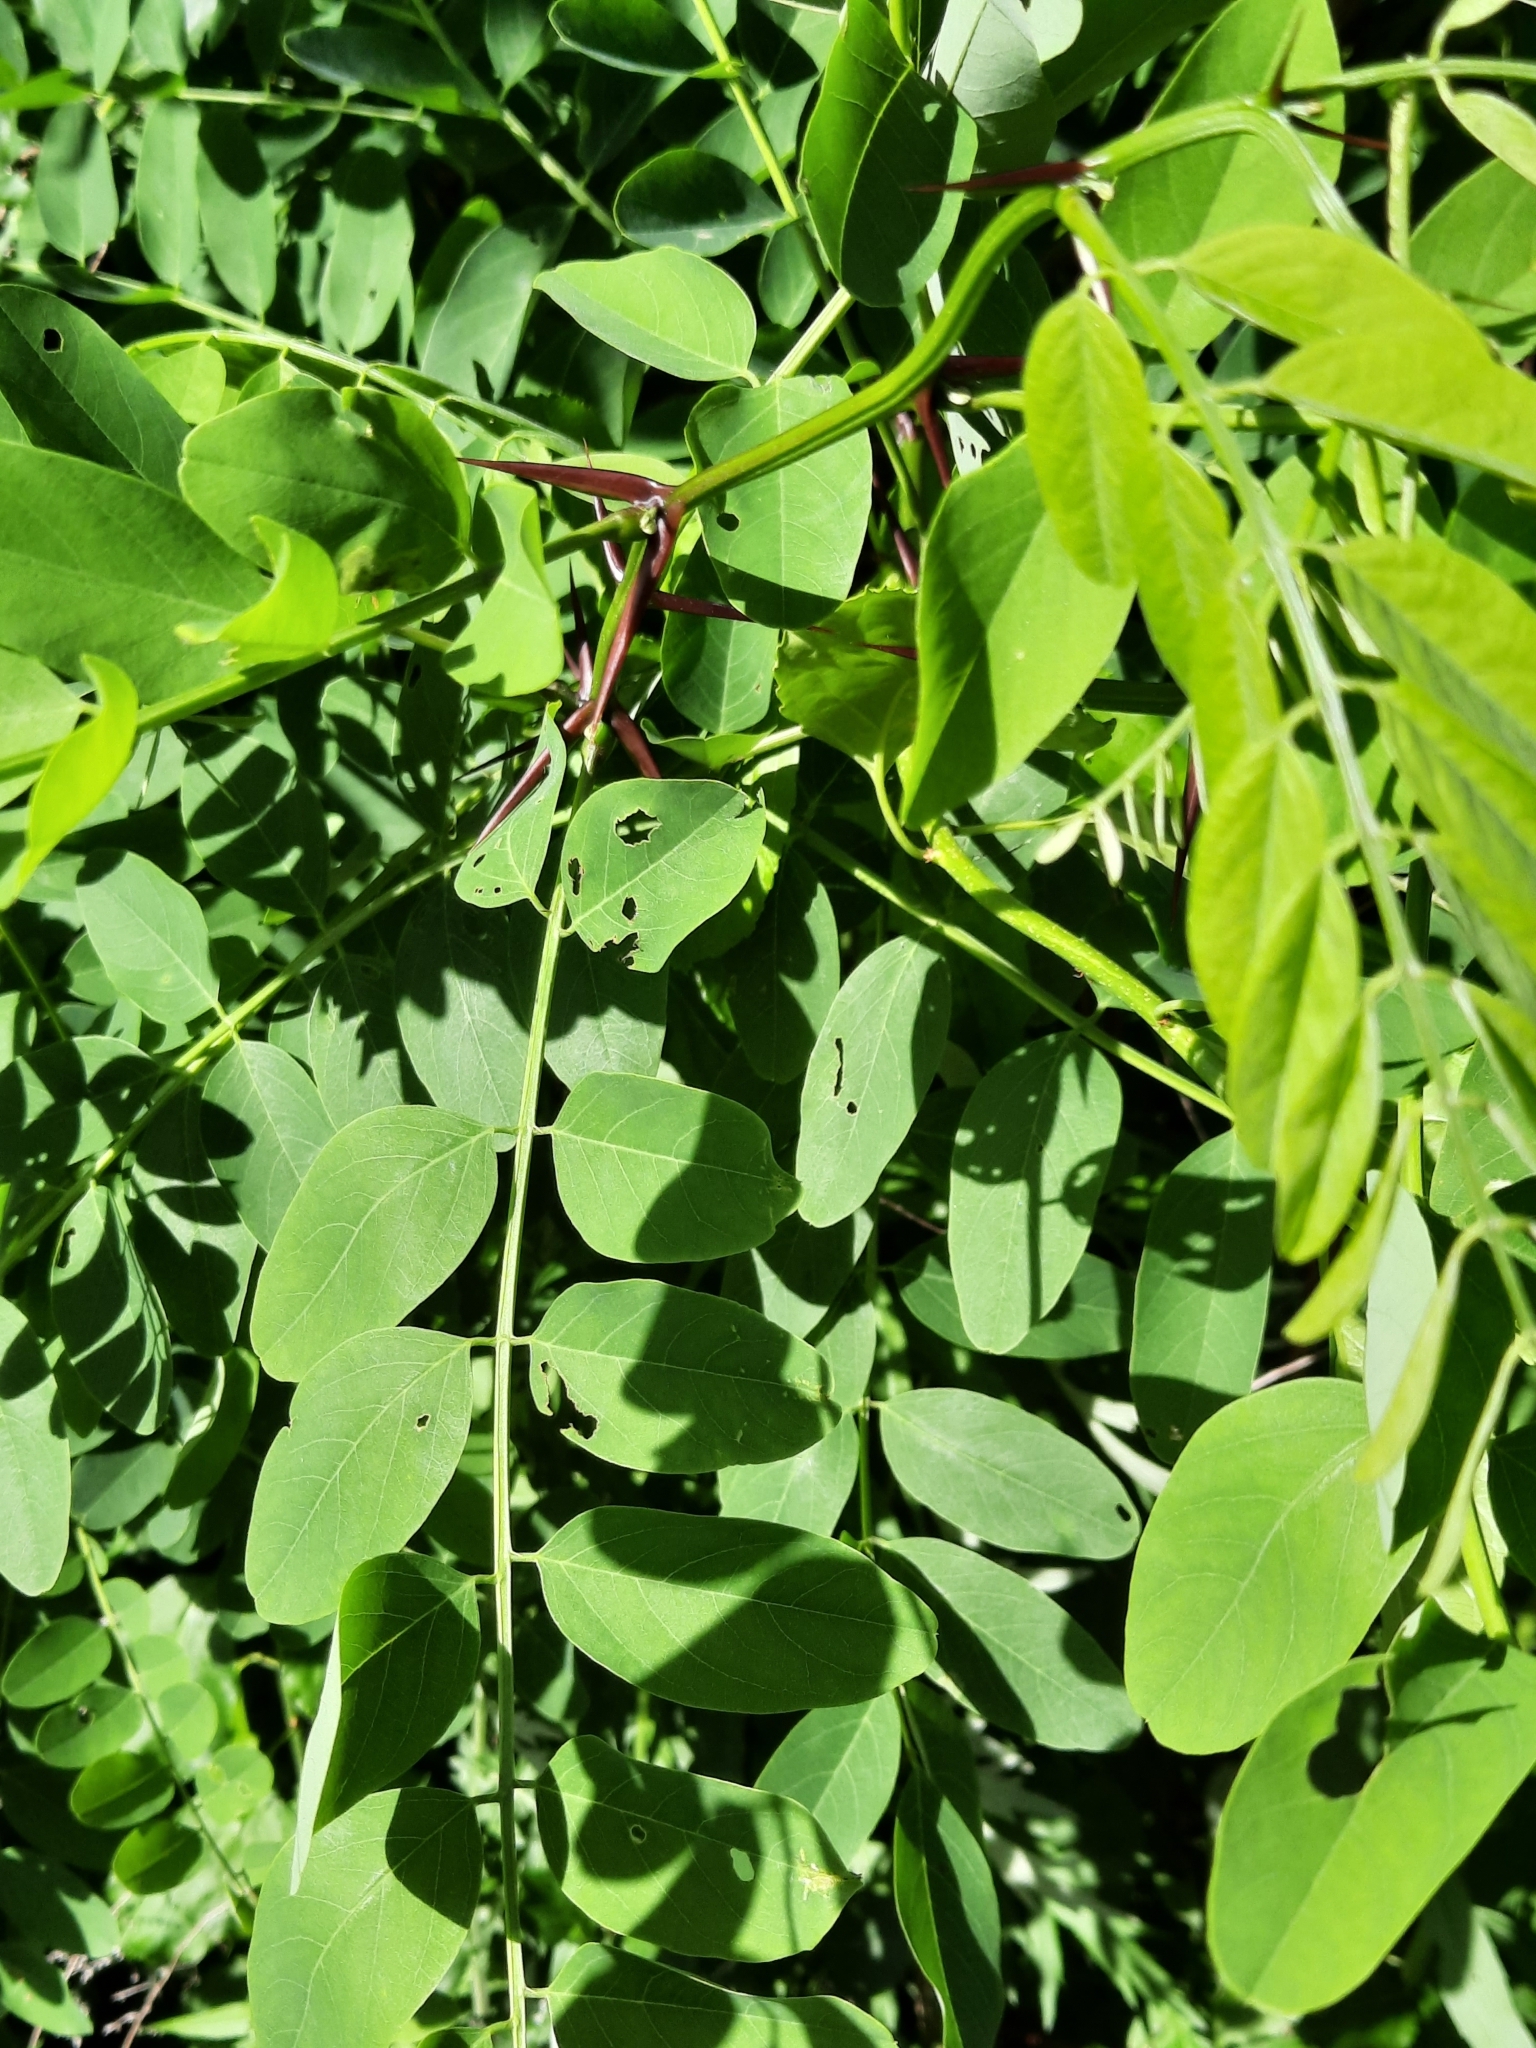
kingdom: Plantae
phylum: Tracheophyta
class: Magnoliopsida
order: Fabales
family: Fabaceae
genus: Robinia
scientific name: Robinia pseudoacacia
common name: Black locust
